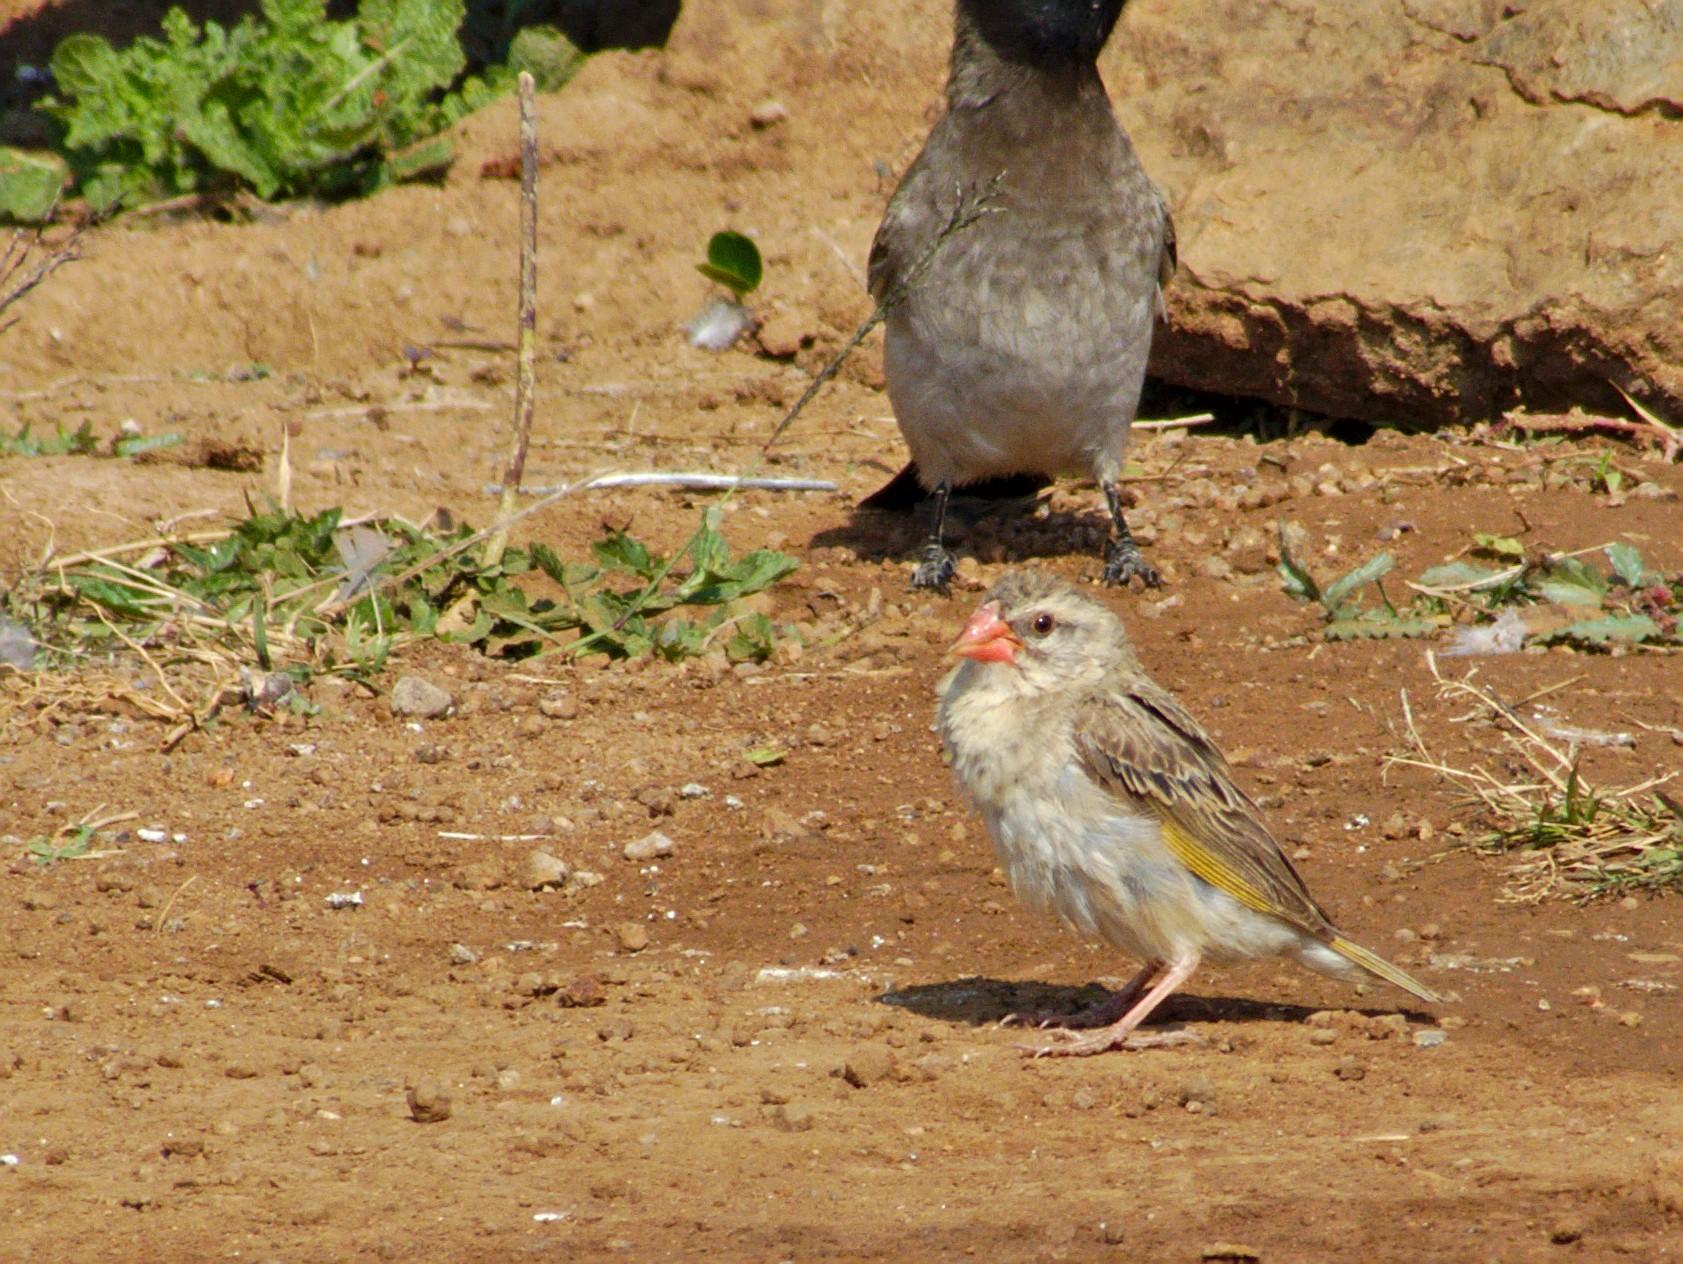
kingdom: Animalia
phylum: Chordata
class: Aves
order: Passeriformes
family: Ploceidae
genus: Quelea
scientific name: Quelea quelea
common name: Red-billed quelea
